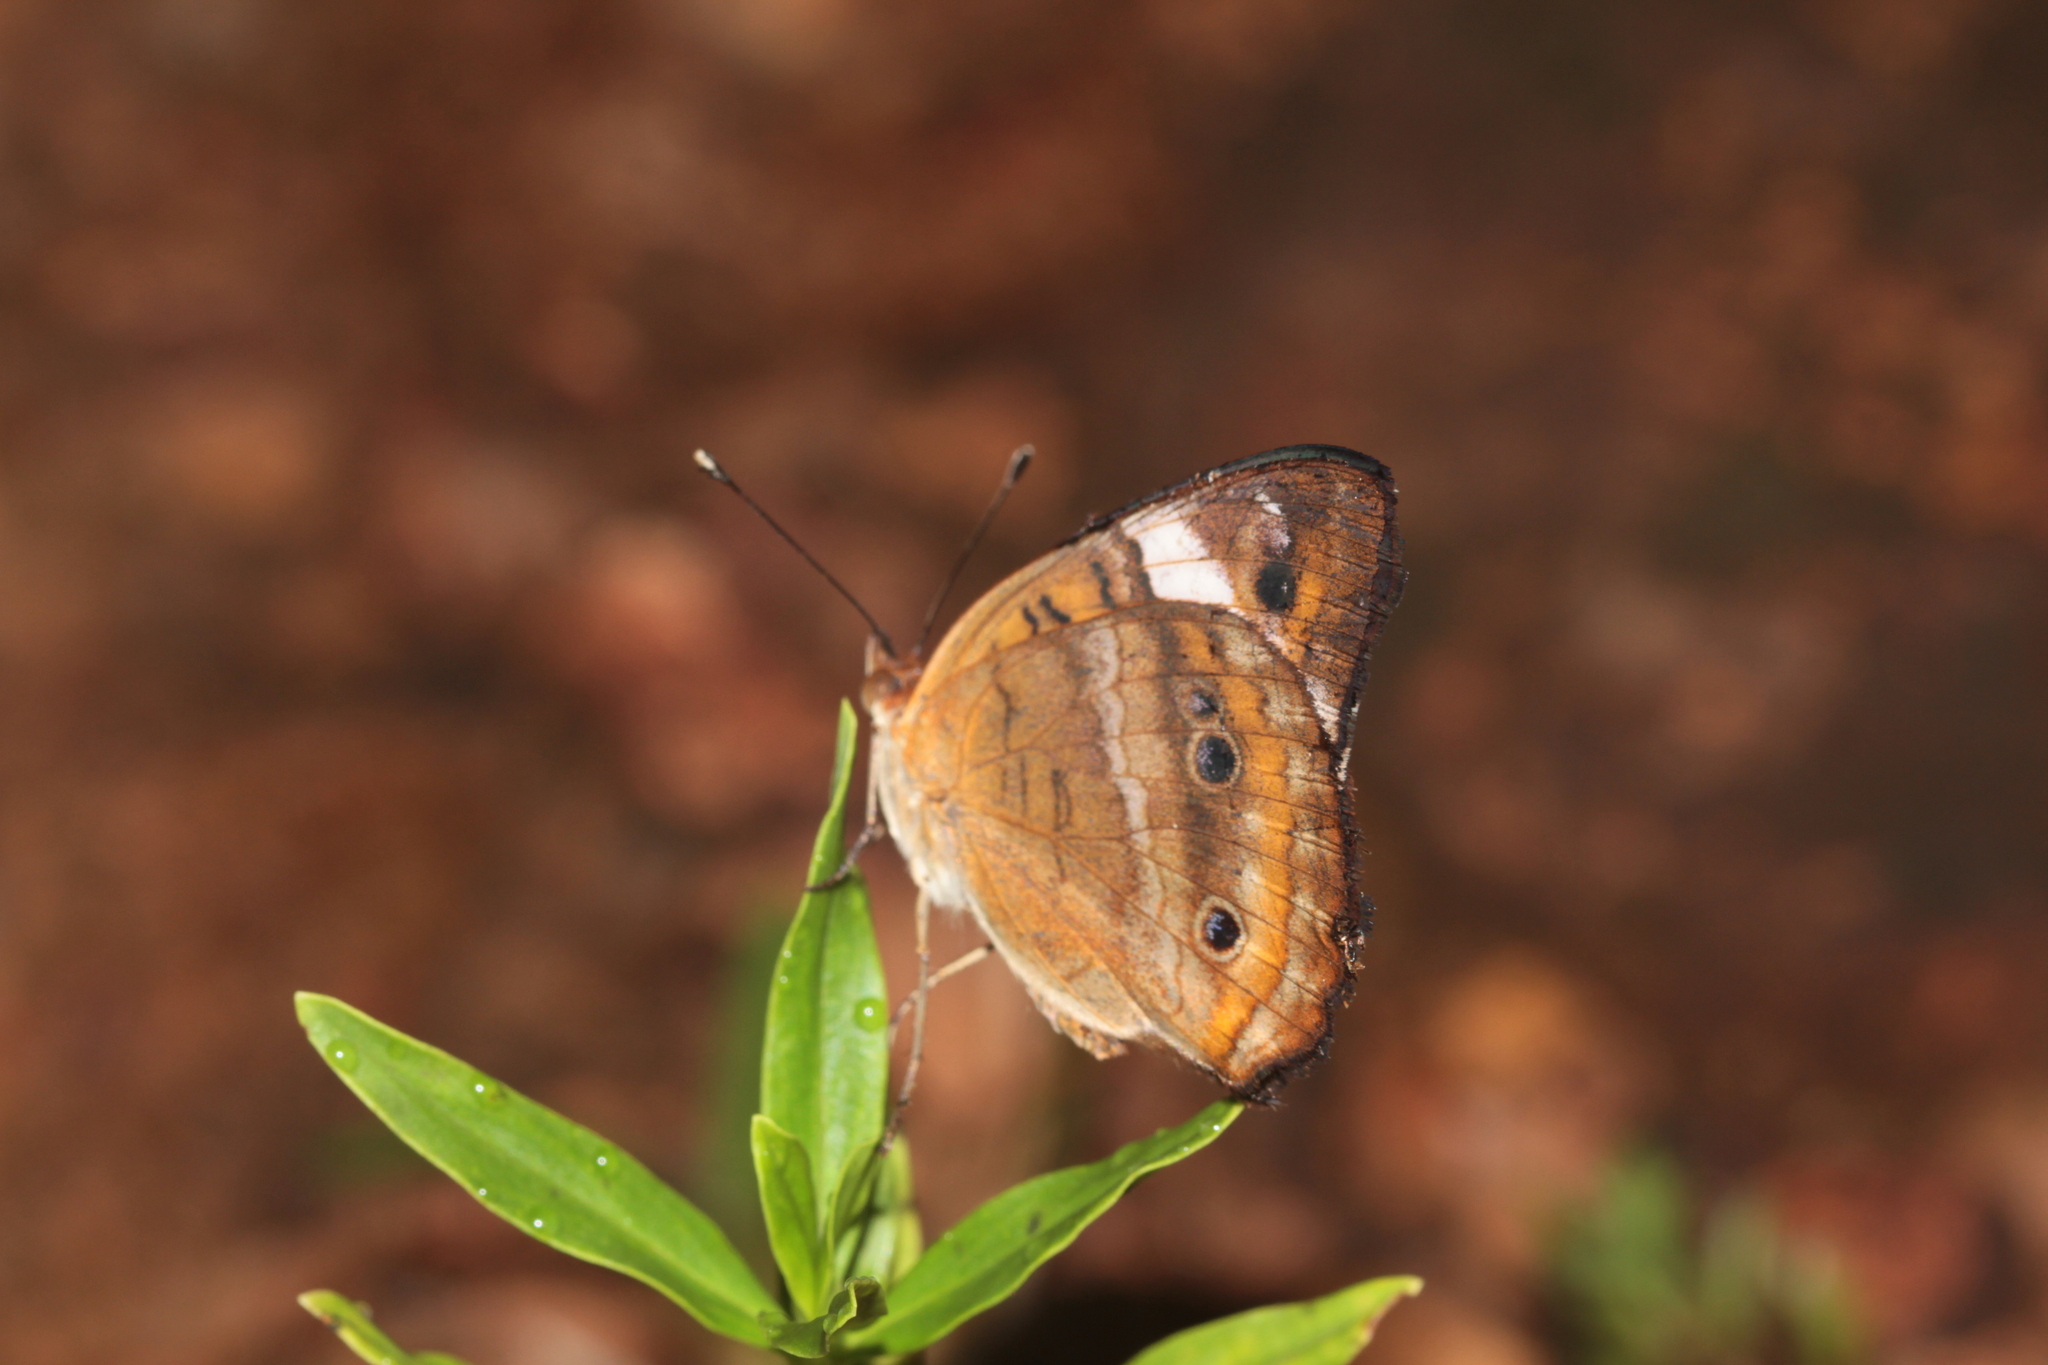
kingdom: Animalia
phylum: Arthropoda
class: Insecta
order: Lepidoptera
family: Nymphalidae
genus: Junonia
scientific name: Junonia evarete
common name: Black mangrove buckeye
